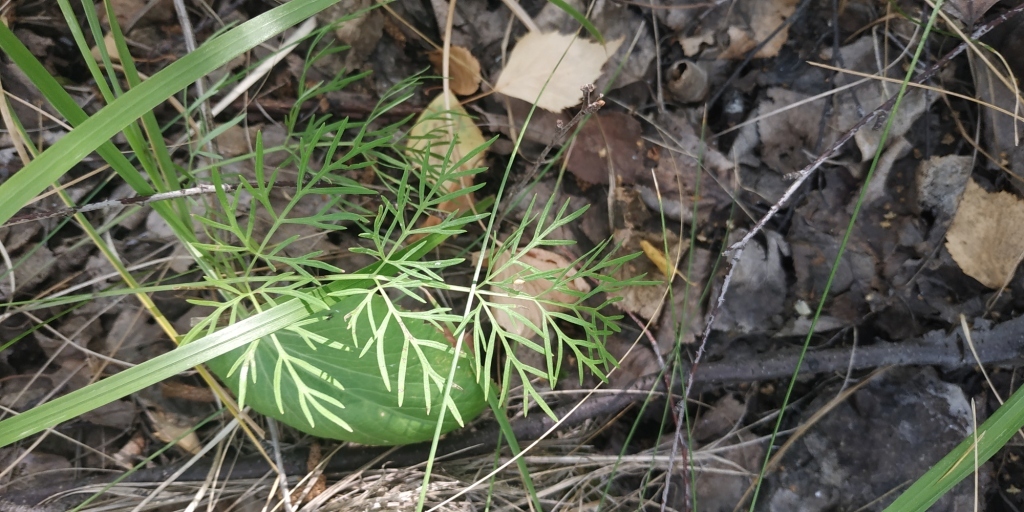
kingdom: Plantae
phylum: Tracheophyta
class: Magnoliopsida
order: Apiales
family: Apiaceae
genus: Kadenia
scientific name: Kadenia dubia
